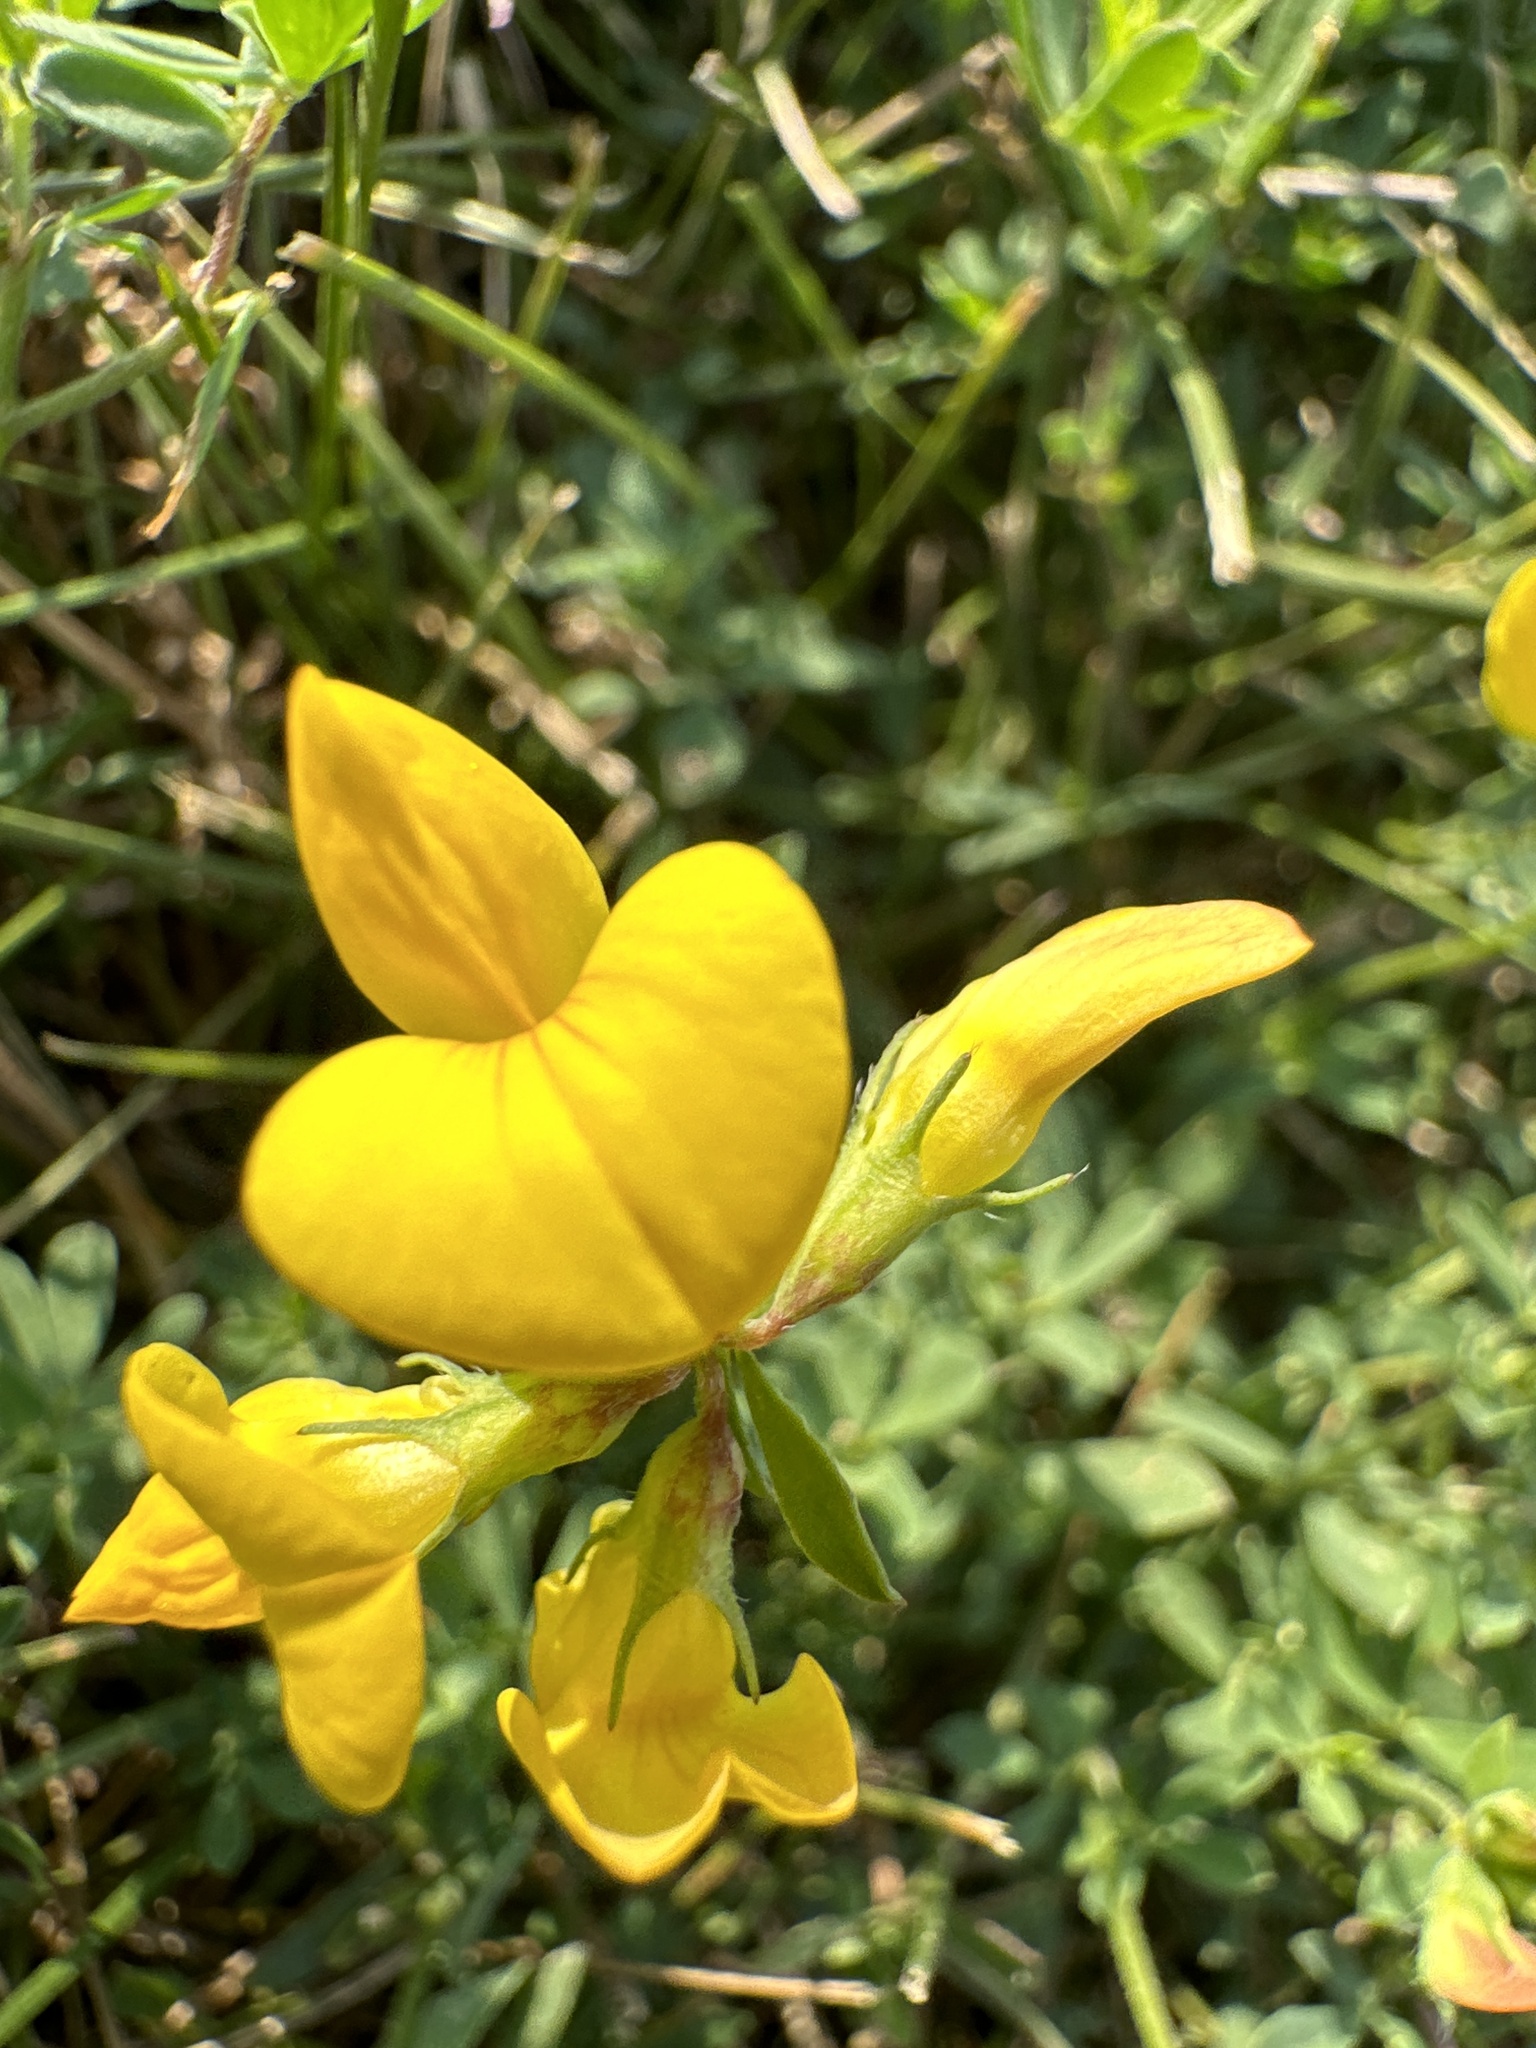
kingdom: Plantae
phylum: Tracheophyta
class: Magnoliopsida
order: Fabales
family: Fabaceae
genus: Lotus
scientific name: Lotus corniculatus
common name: Common bird's-foot-trefoil
